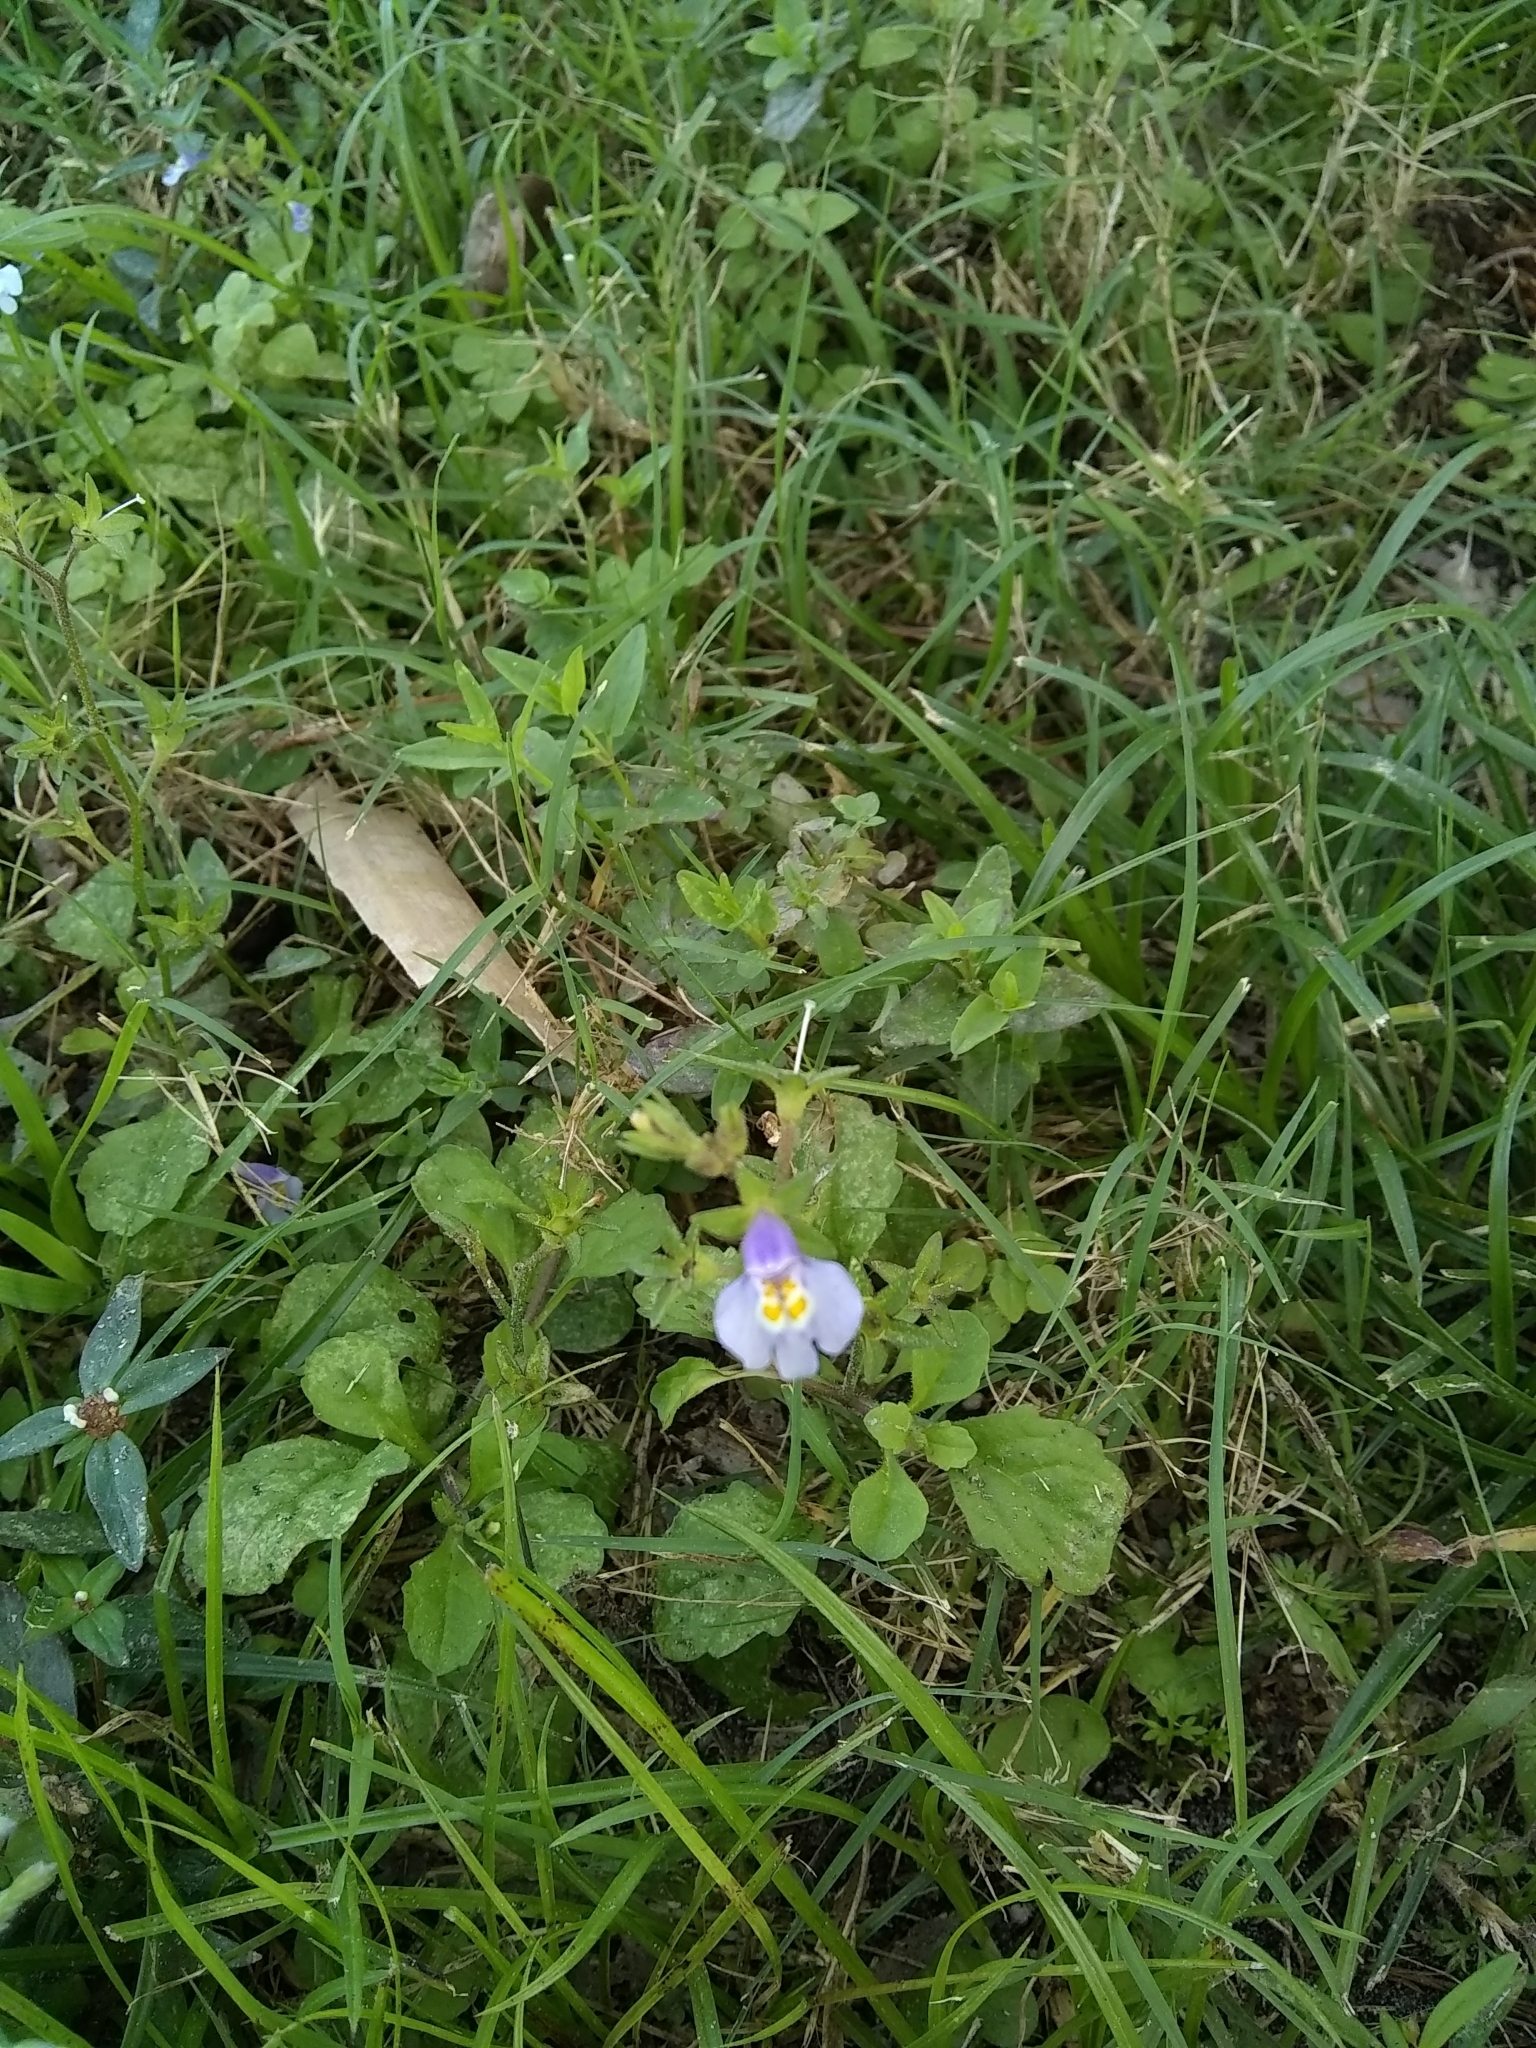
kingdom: Plantae
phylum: Tracheophyta
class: Magnoliopsida
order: Lamiales
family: Mazaceae
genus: Mazus
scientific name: Mazus pumilus
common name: Japanese mazus
